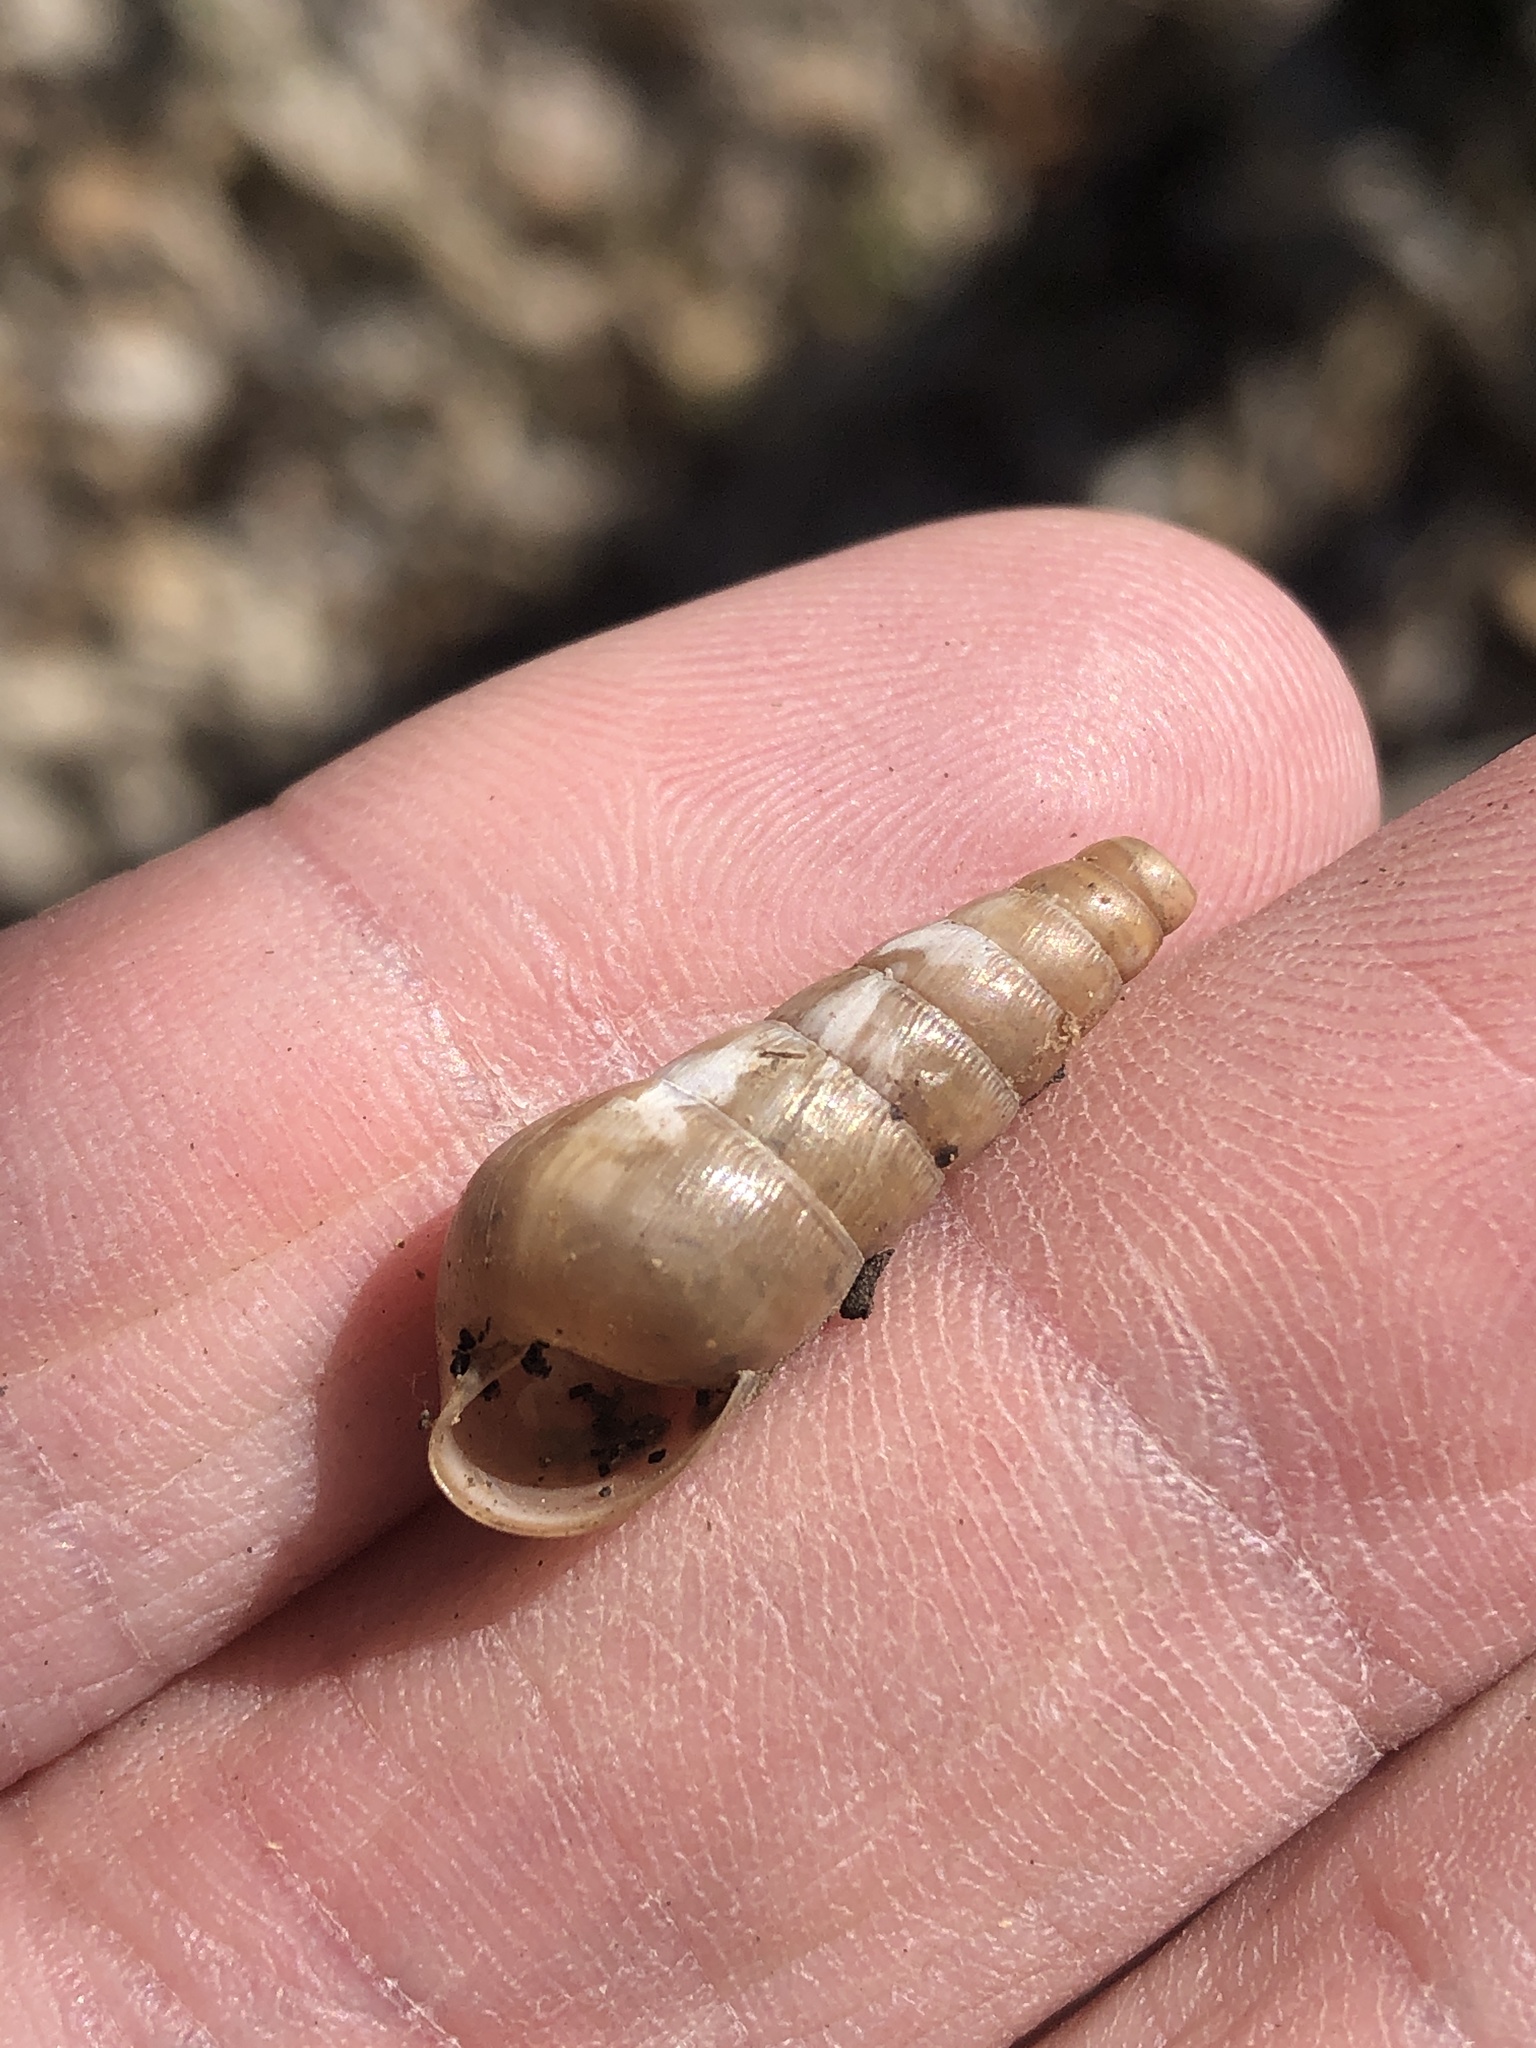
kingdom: Animalia
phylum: Mollusca
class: Gastropoda
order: Stylommatophora
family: Achatinidae
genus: Rumina
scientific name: Rumina decollata
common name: Decollate snail
